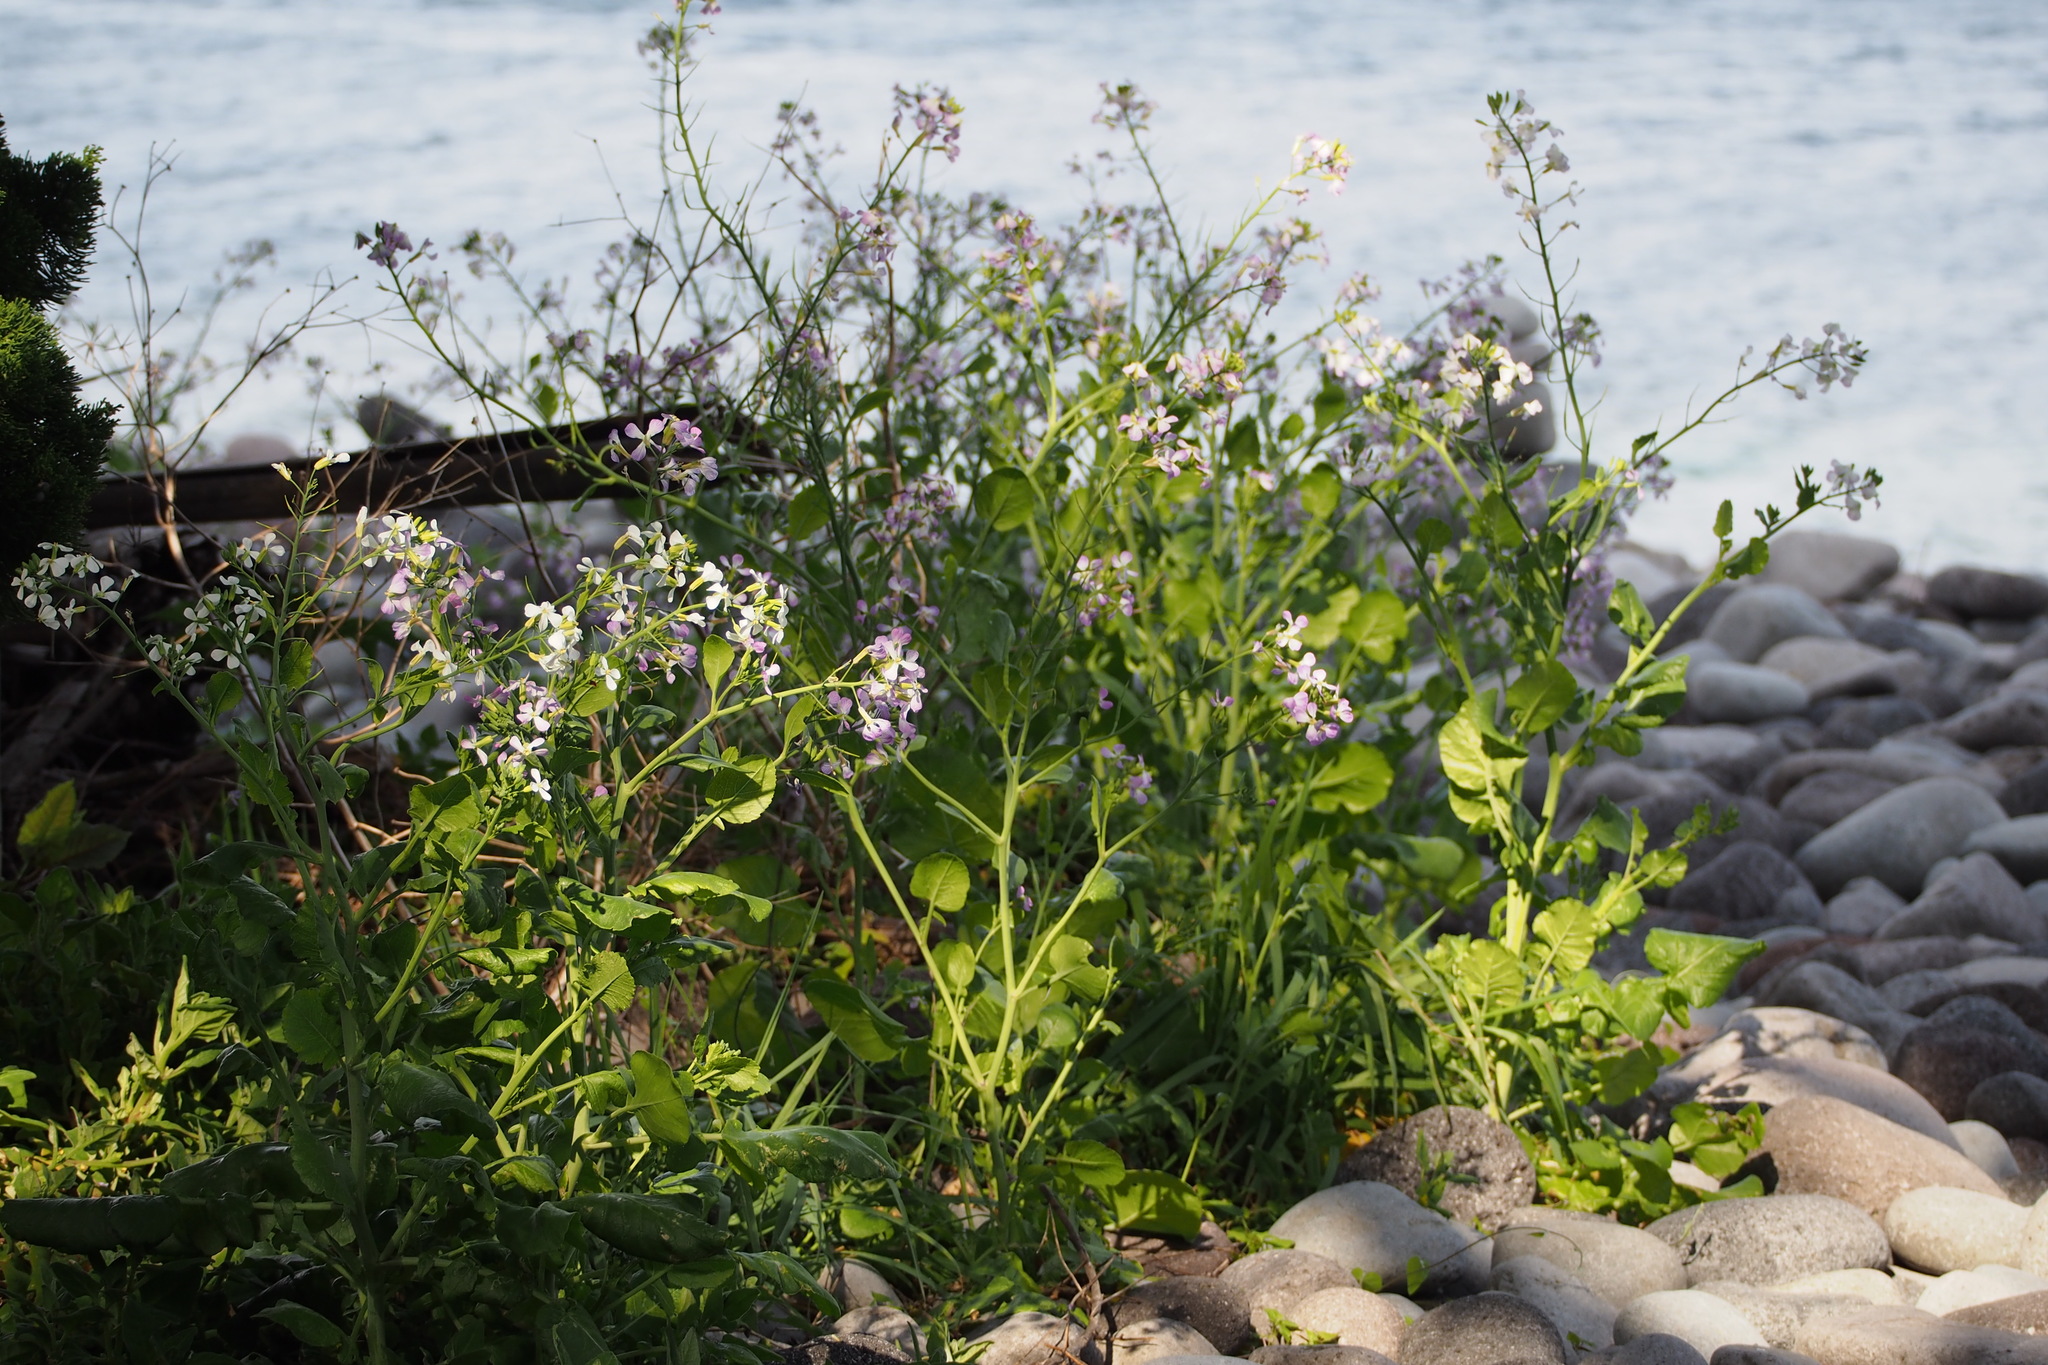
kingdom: Plantae
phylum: Tracheophyta
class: Magnoliopsida
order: Brassicales
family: Brassicaceae
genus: Raphanus
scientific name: Raphanus sativus
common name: Cultivated radish
